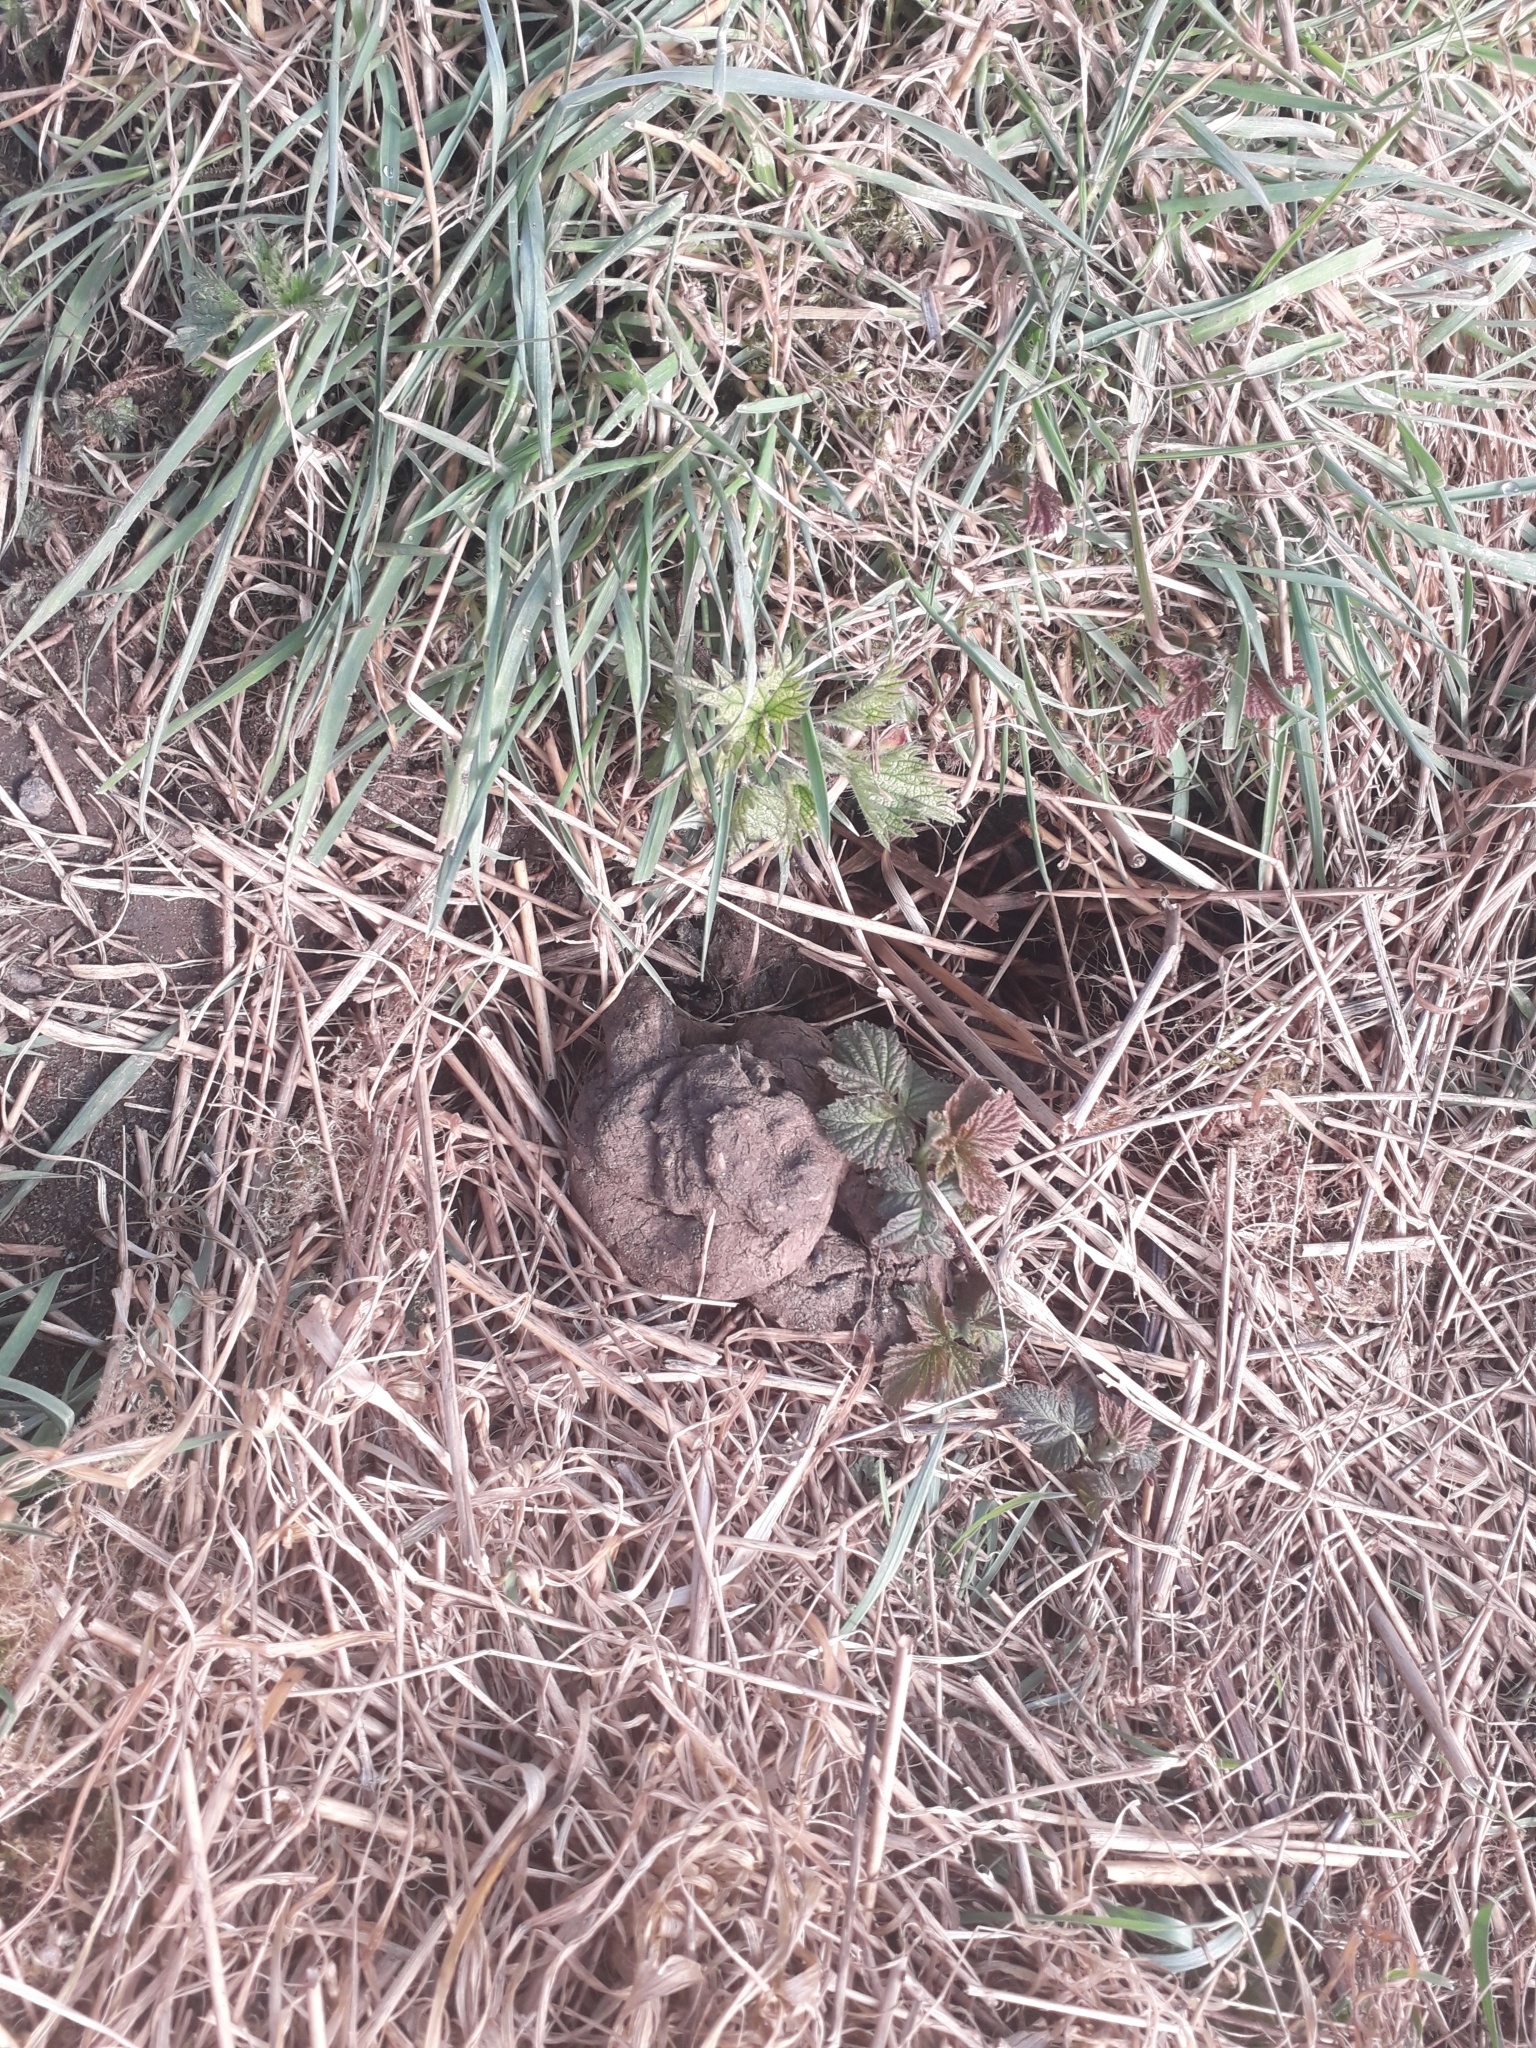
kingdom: Animalia
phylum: Chordata
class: Mammalia
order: Carnivora
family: Mustelidae
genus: Meles
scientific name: Meles meles
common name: Eurasian badger
